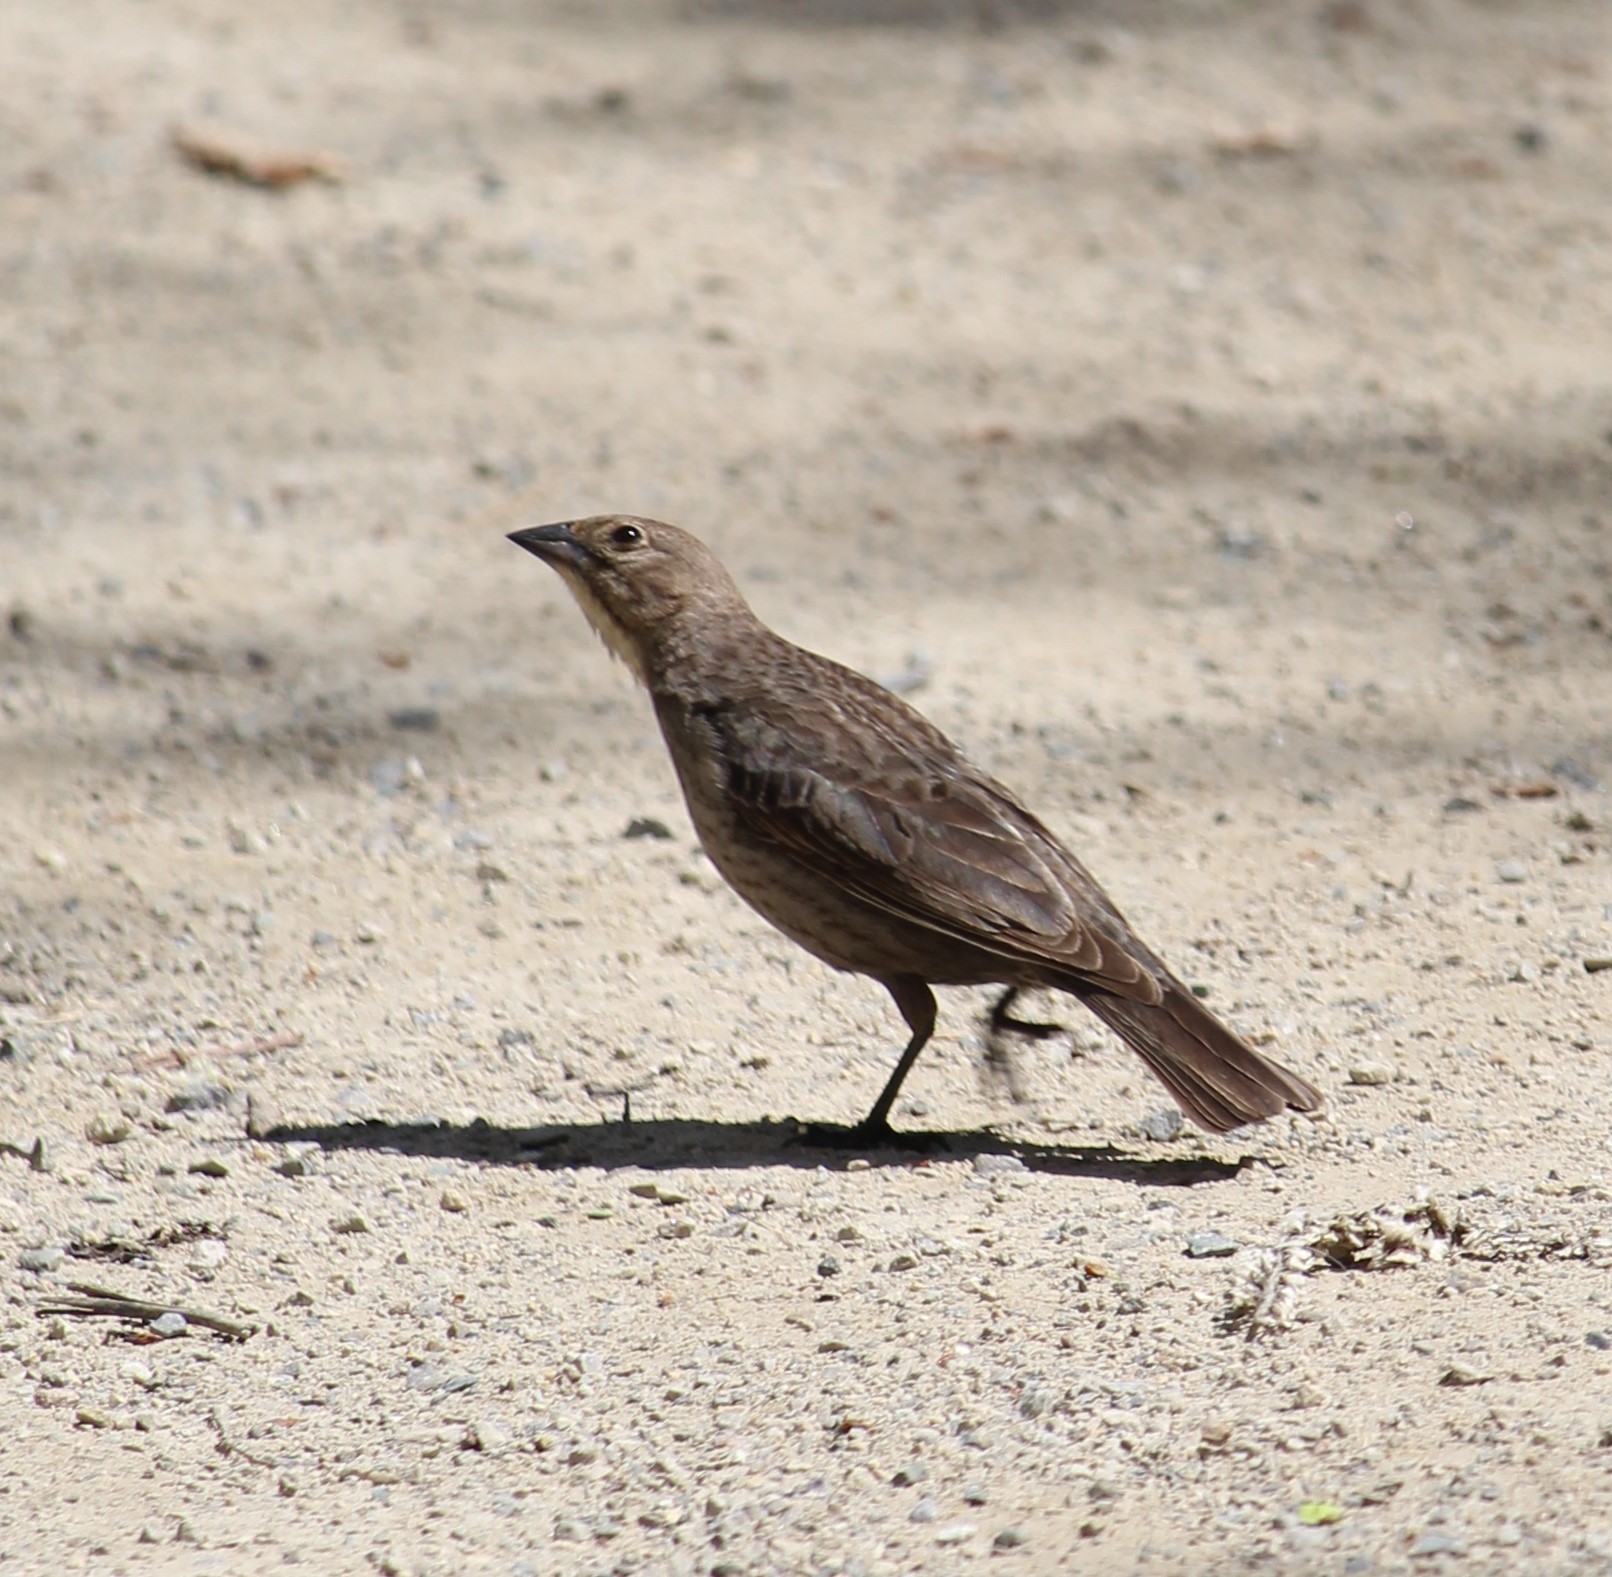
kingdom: Animalia
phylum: Chordata
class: Aves
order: Passeriformes
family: Icteridae
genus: Molothrus
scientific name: Molothrus ater
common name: Brown-headed cowbird
